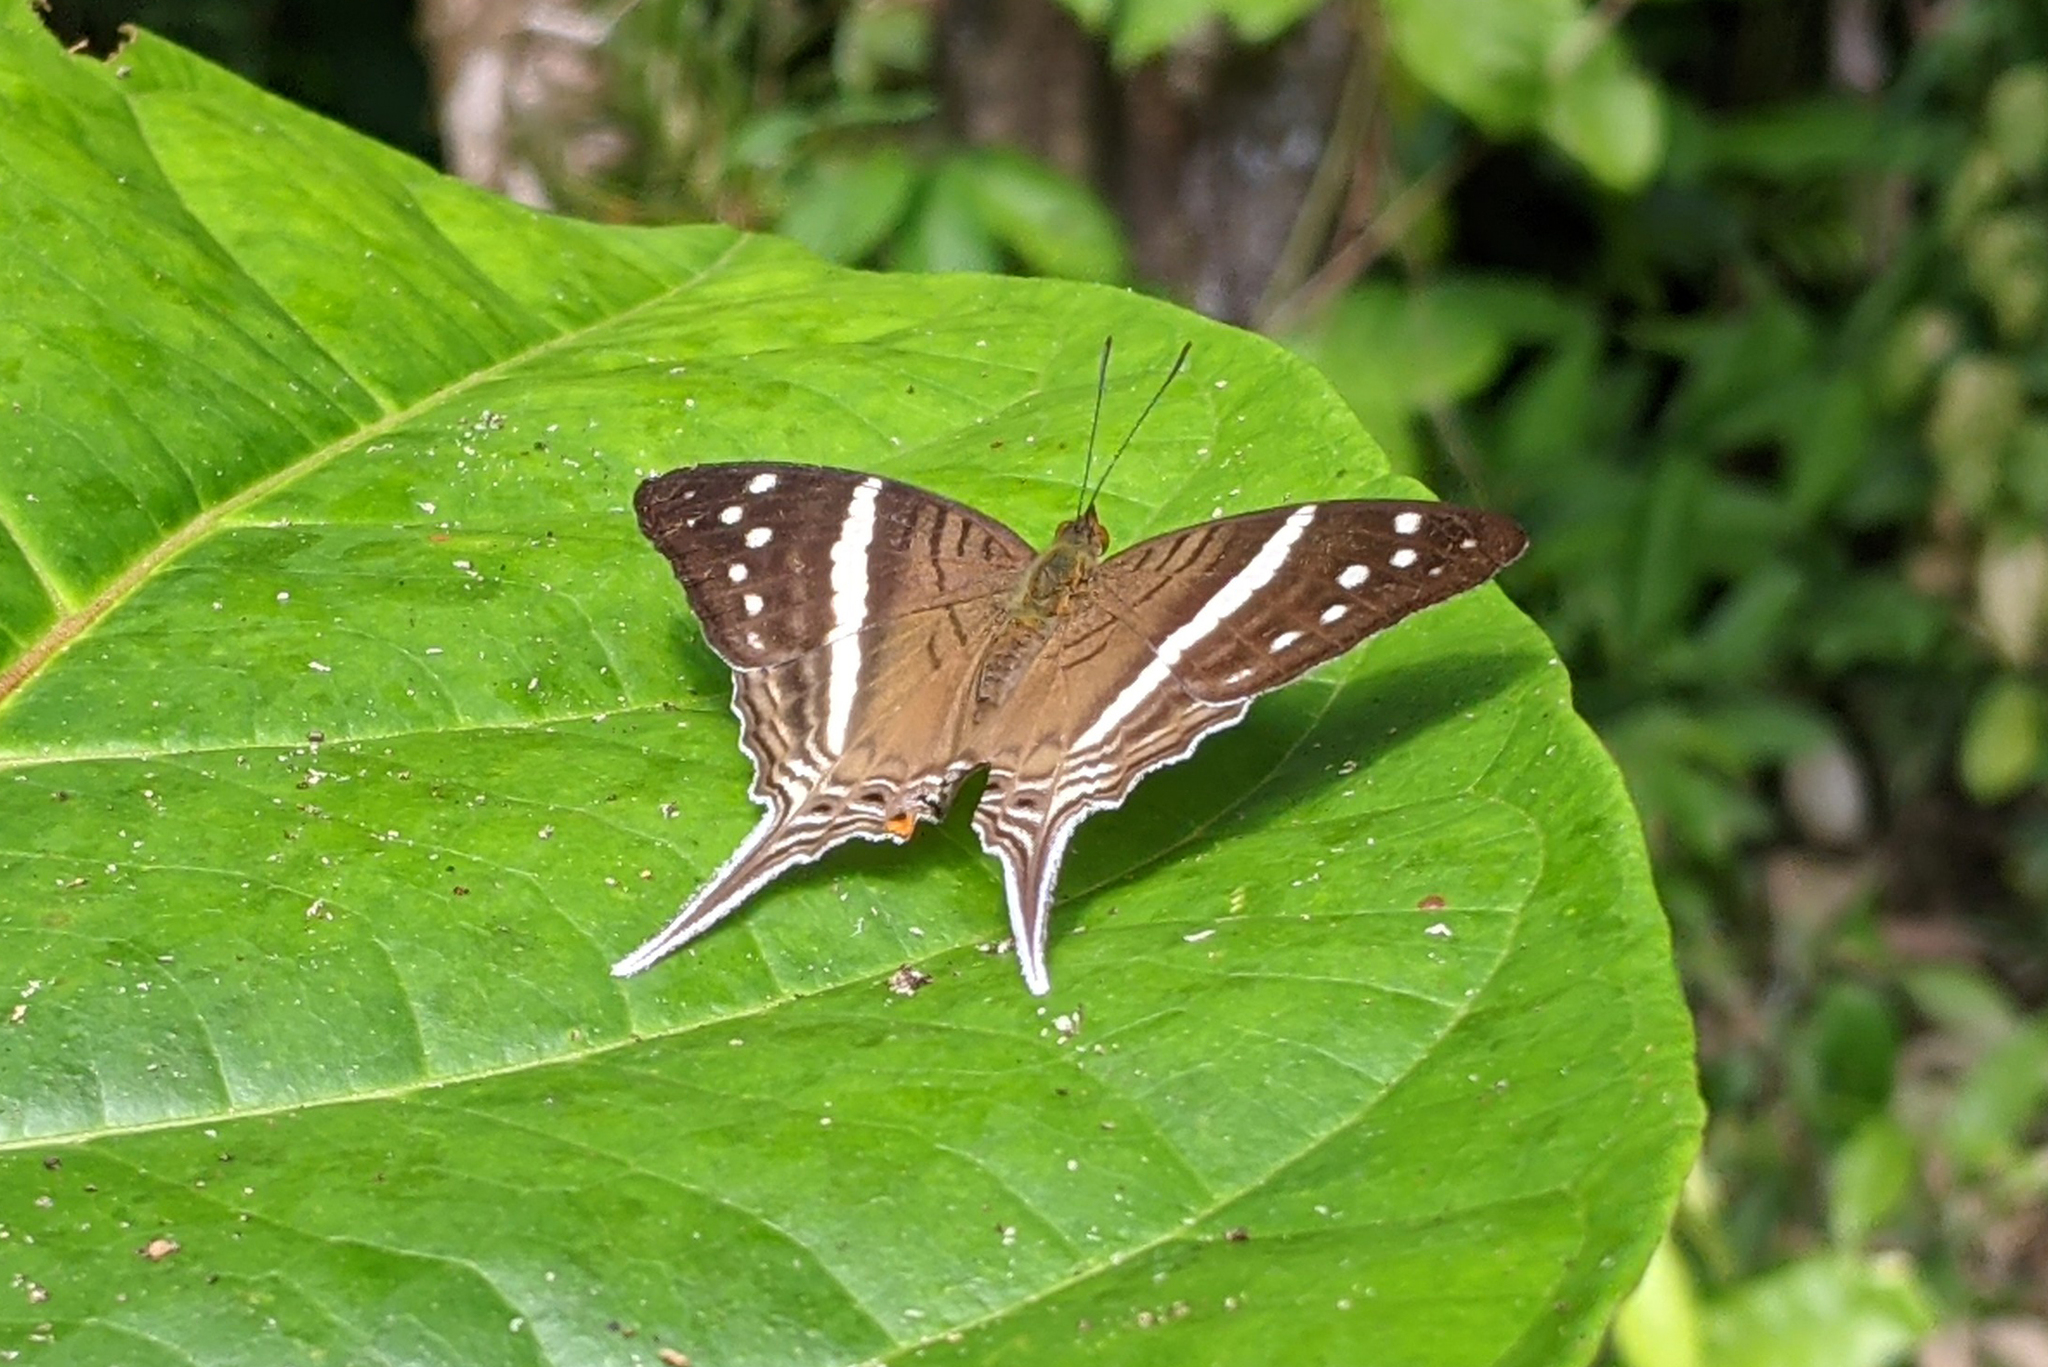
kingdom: Animalia
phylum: Arthropoda
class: Insecta
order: Lepidoptera
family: Nymphalidae
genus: Marpesia
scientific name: Marpesia crethon
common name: Crethon daggerwing
